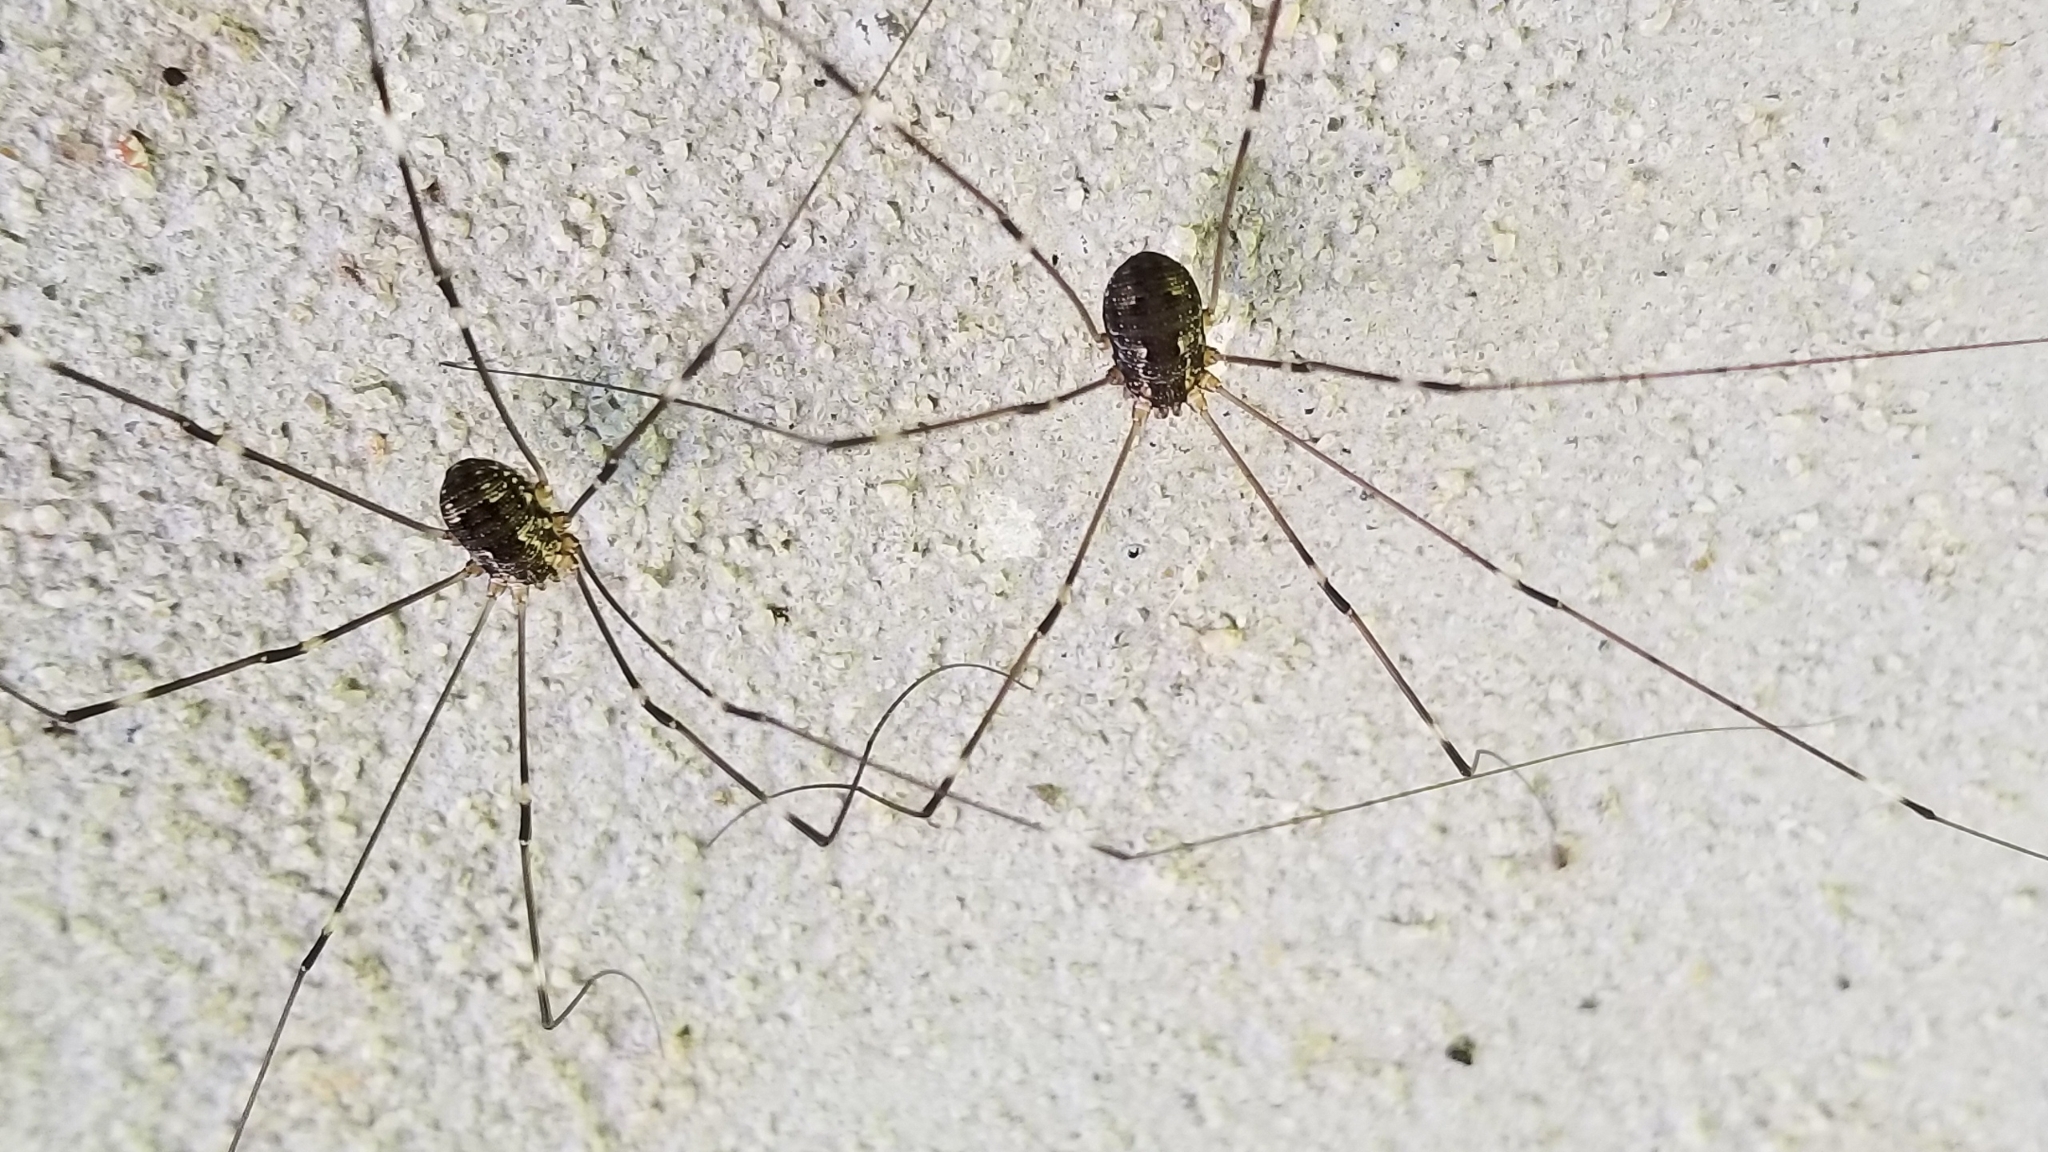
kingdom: Animalia
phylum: Arthropoda
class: Arachnida
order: Opiliones
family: Sclerosomatidae
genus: Leiobunum
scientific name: Leiobunum townsendi
